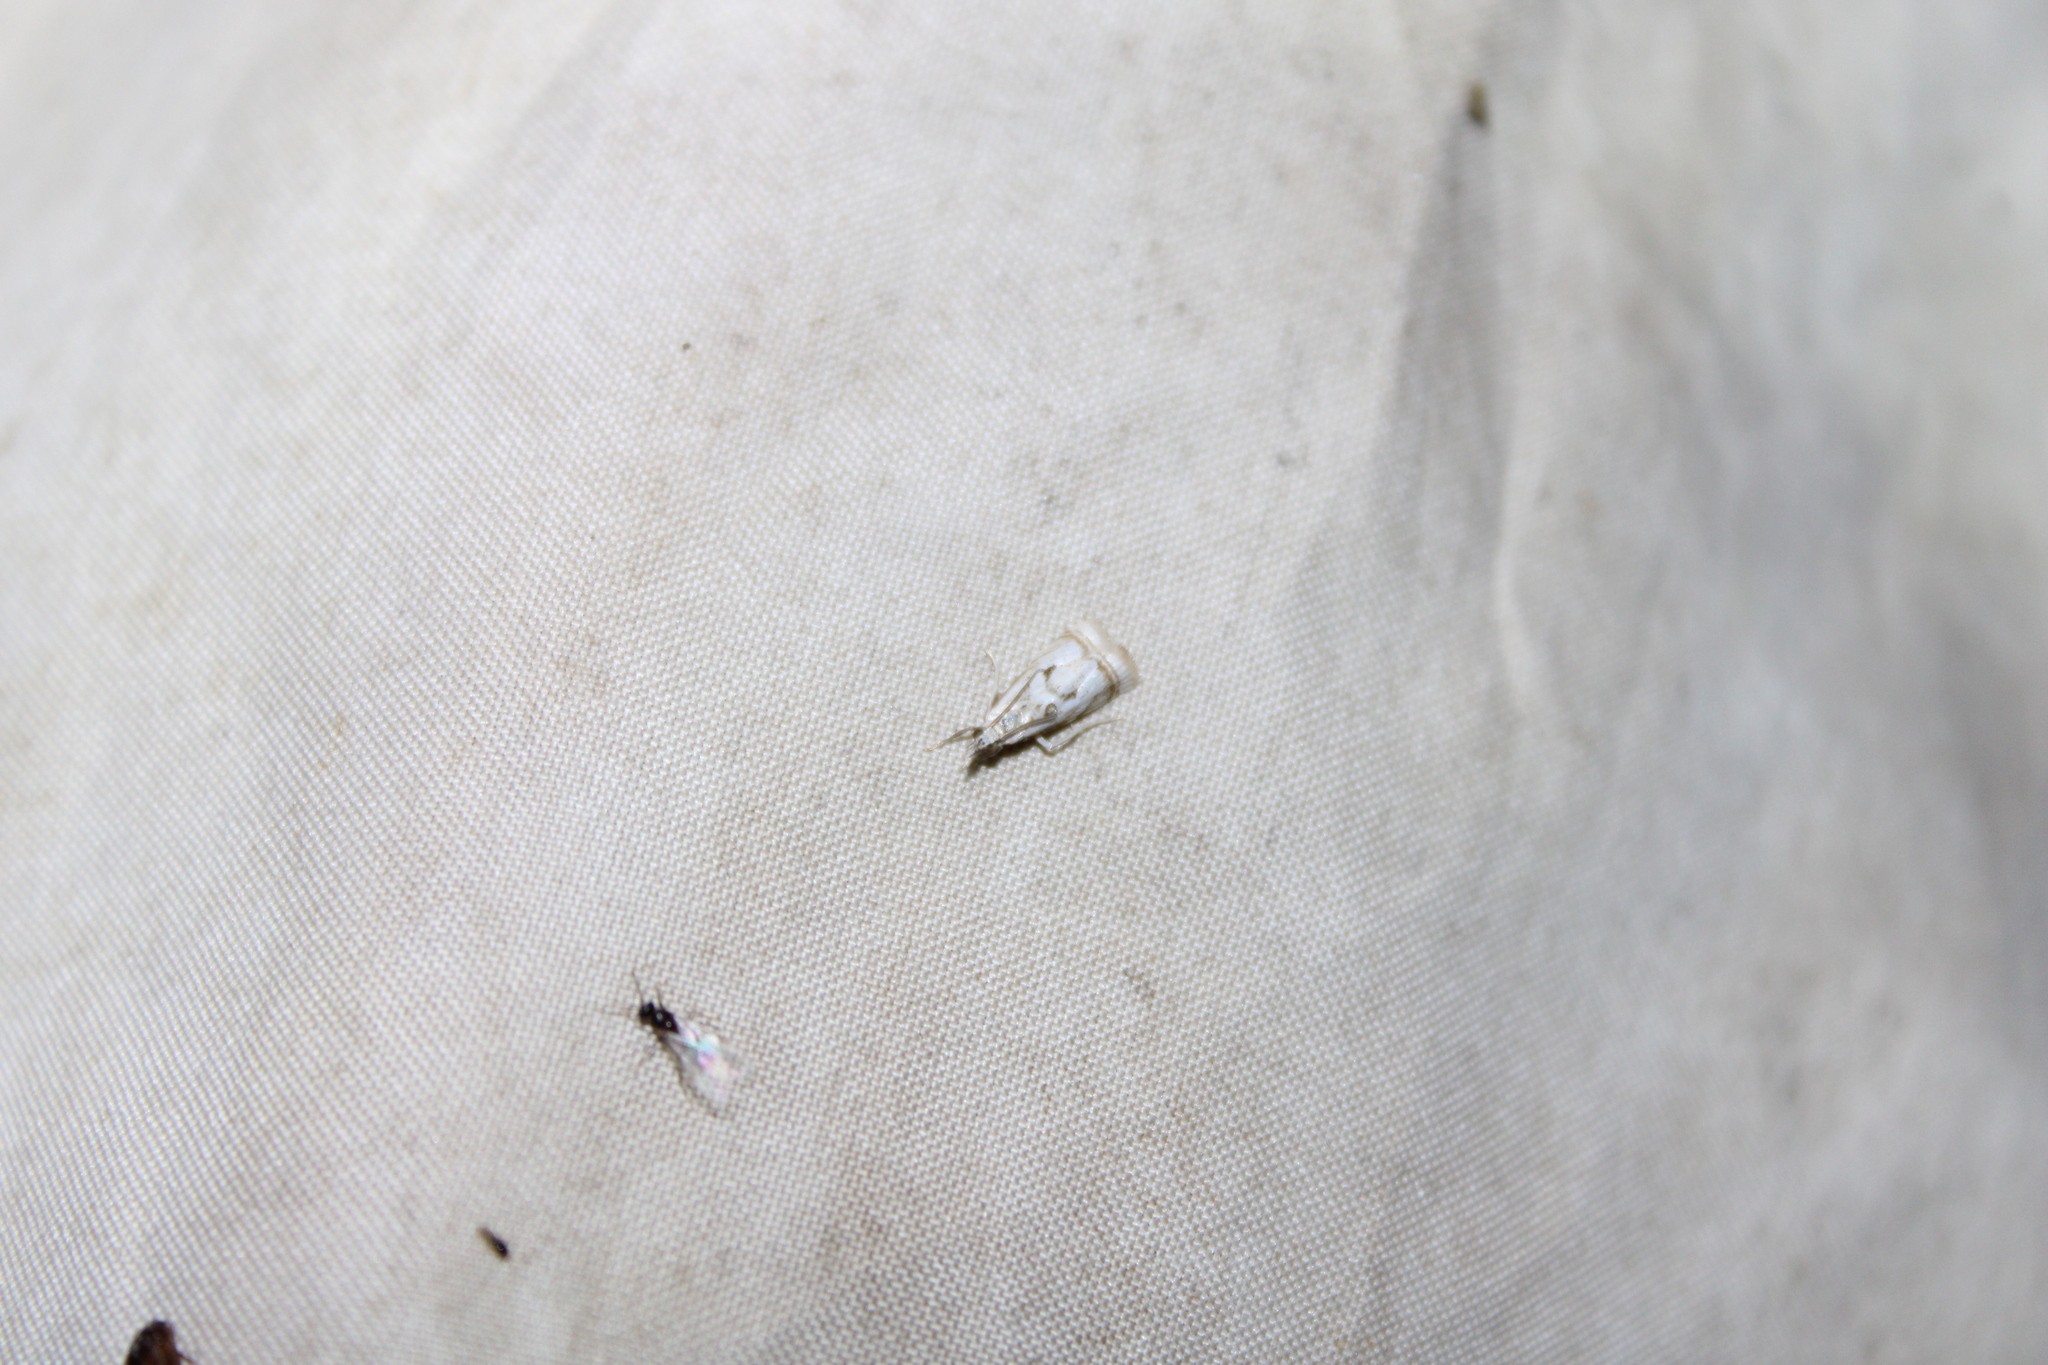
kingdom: Animalia
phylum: Arthropoda
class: Insecta
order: Lepidoptera
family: Crambidae
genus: Microcrambus
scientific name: Microcrambus elegans
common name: Elegant grass-veneer
